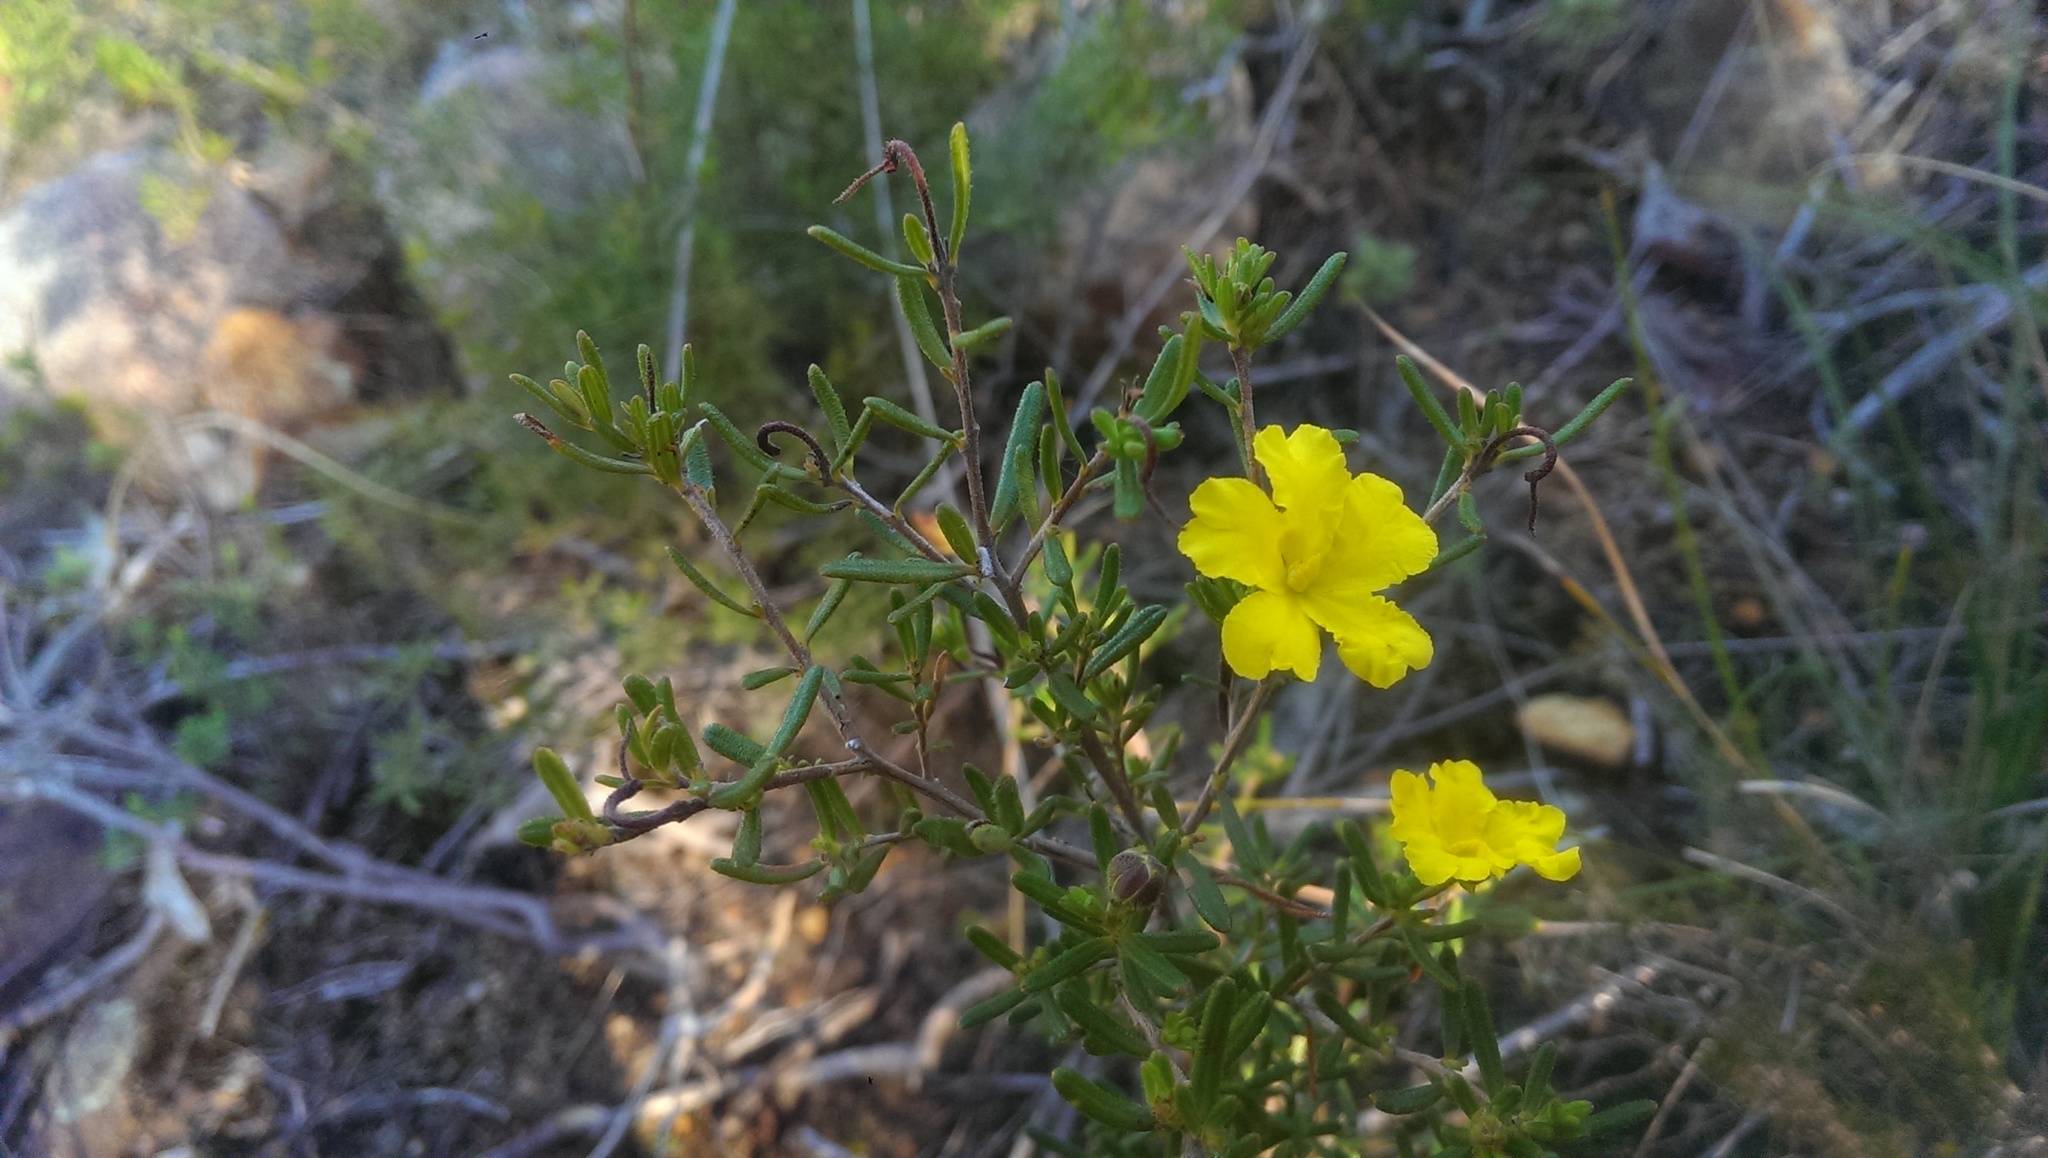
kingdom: Plantae
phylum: Tracheophyta
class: Magnoliopsida
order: Dilleniales
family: Dilleniaceae
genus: Hibbertia
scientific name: Hibbertia hypericoides
